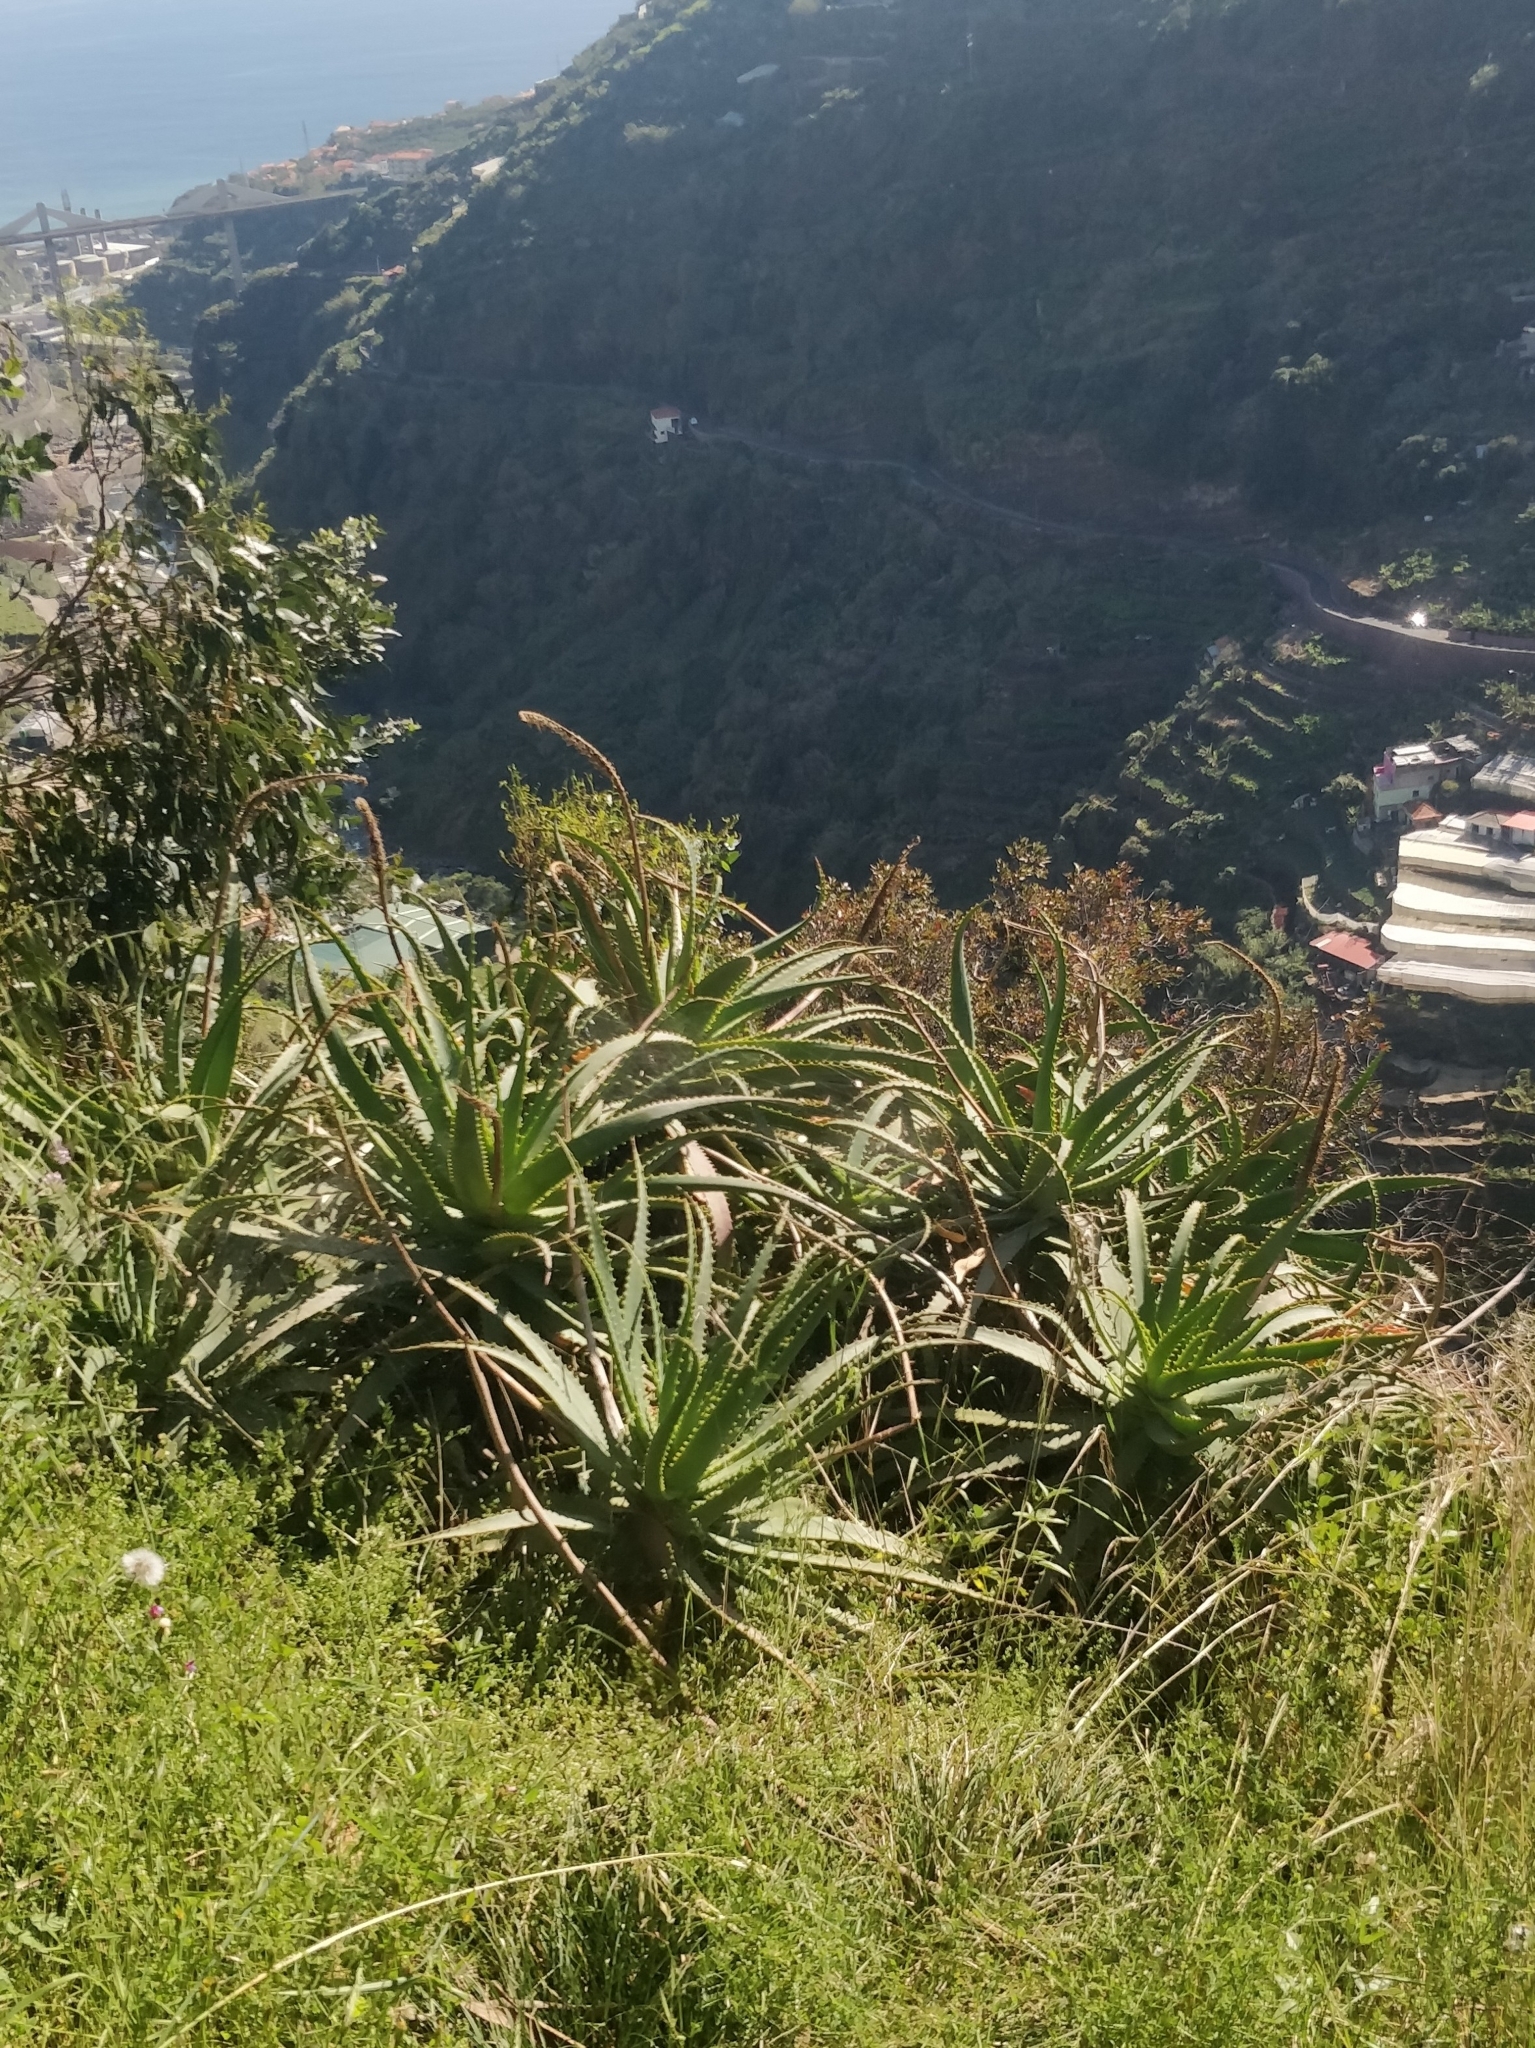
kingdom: Plantae
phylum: Tracheophyta
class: Liliopsida
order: Asparagales
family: Asphodelaceae
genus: Aloe
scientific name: Aloe arborescens
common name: Candelabra aloe
